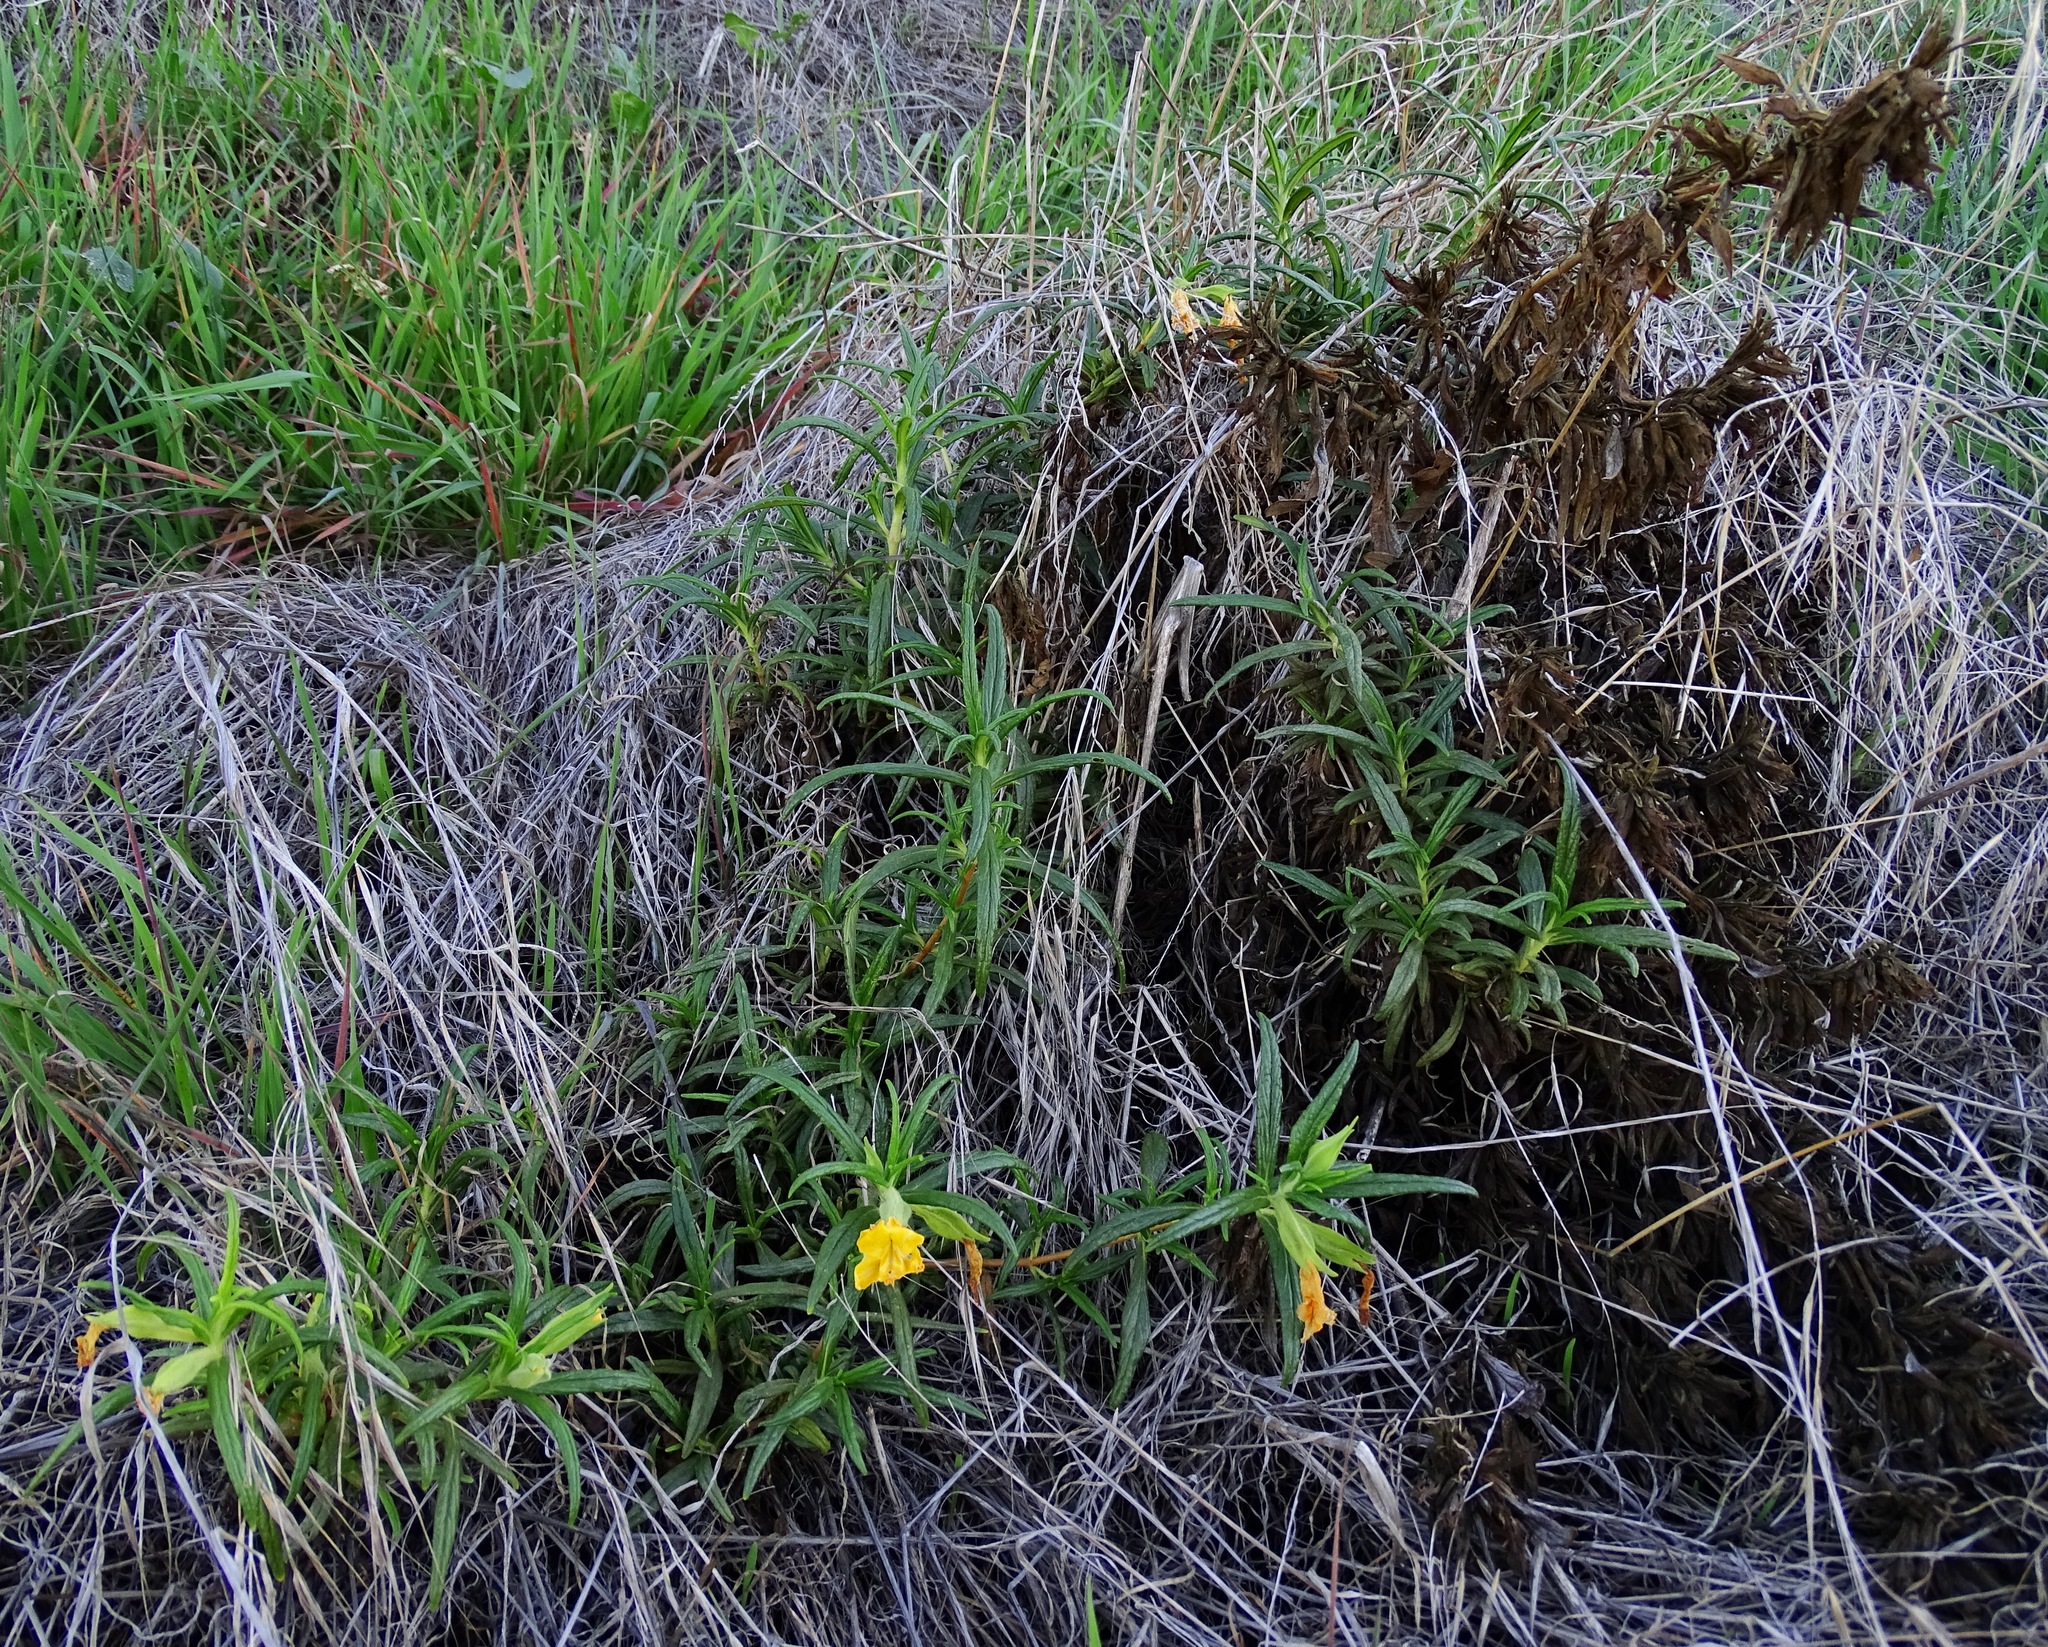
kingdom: Plantae
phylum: Tracheophyta
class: Magnoliopsida
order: Lamiales
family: Phrymaceae
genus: Diplacus
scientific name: Diplacus longiflorus
